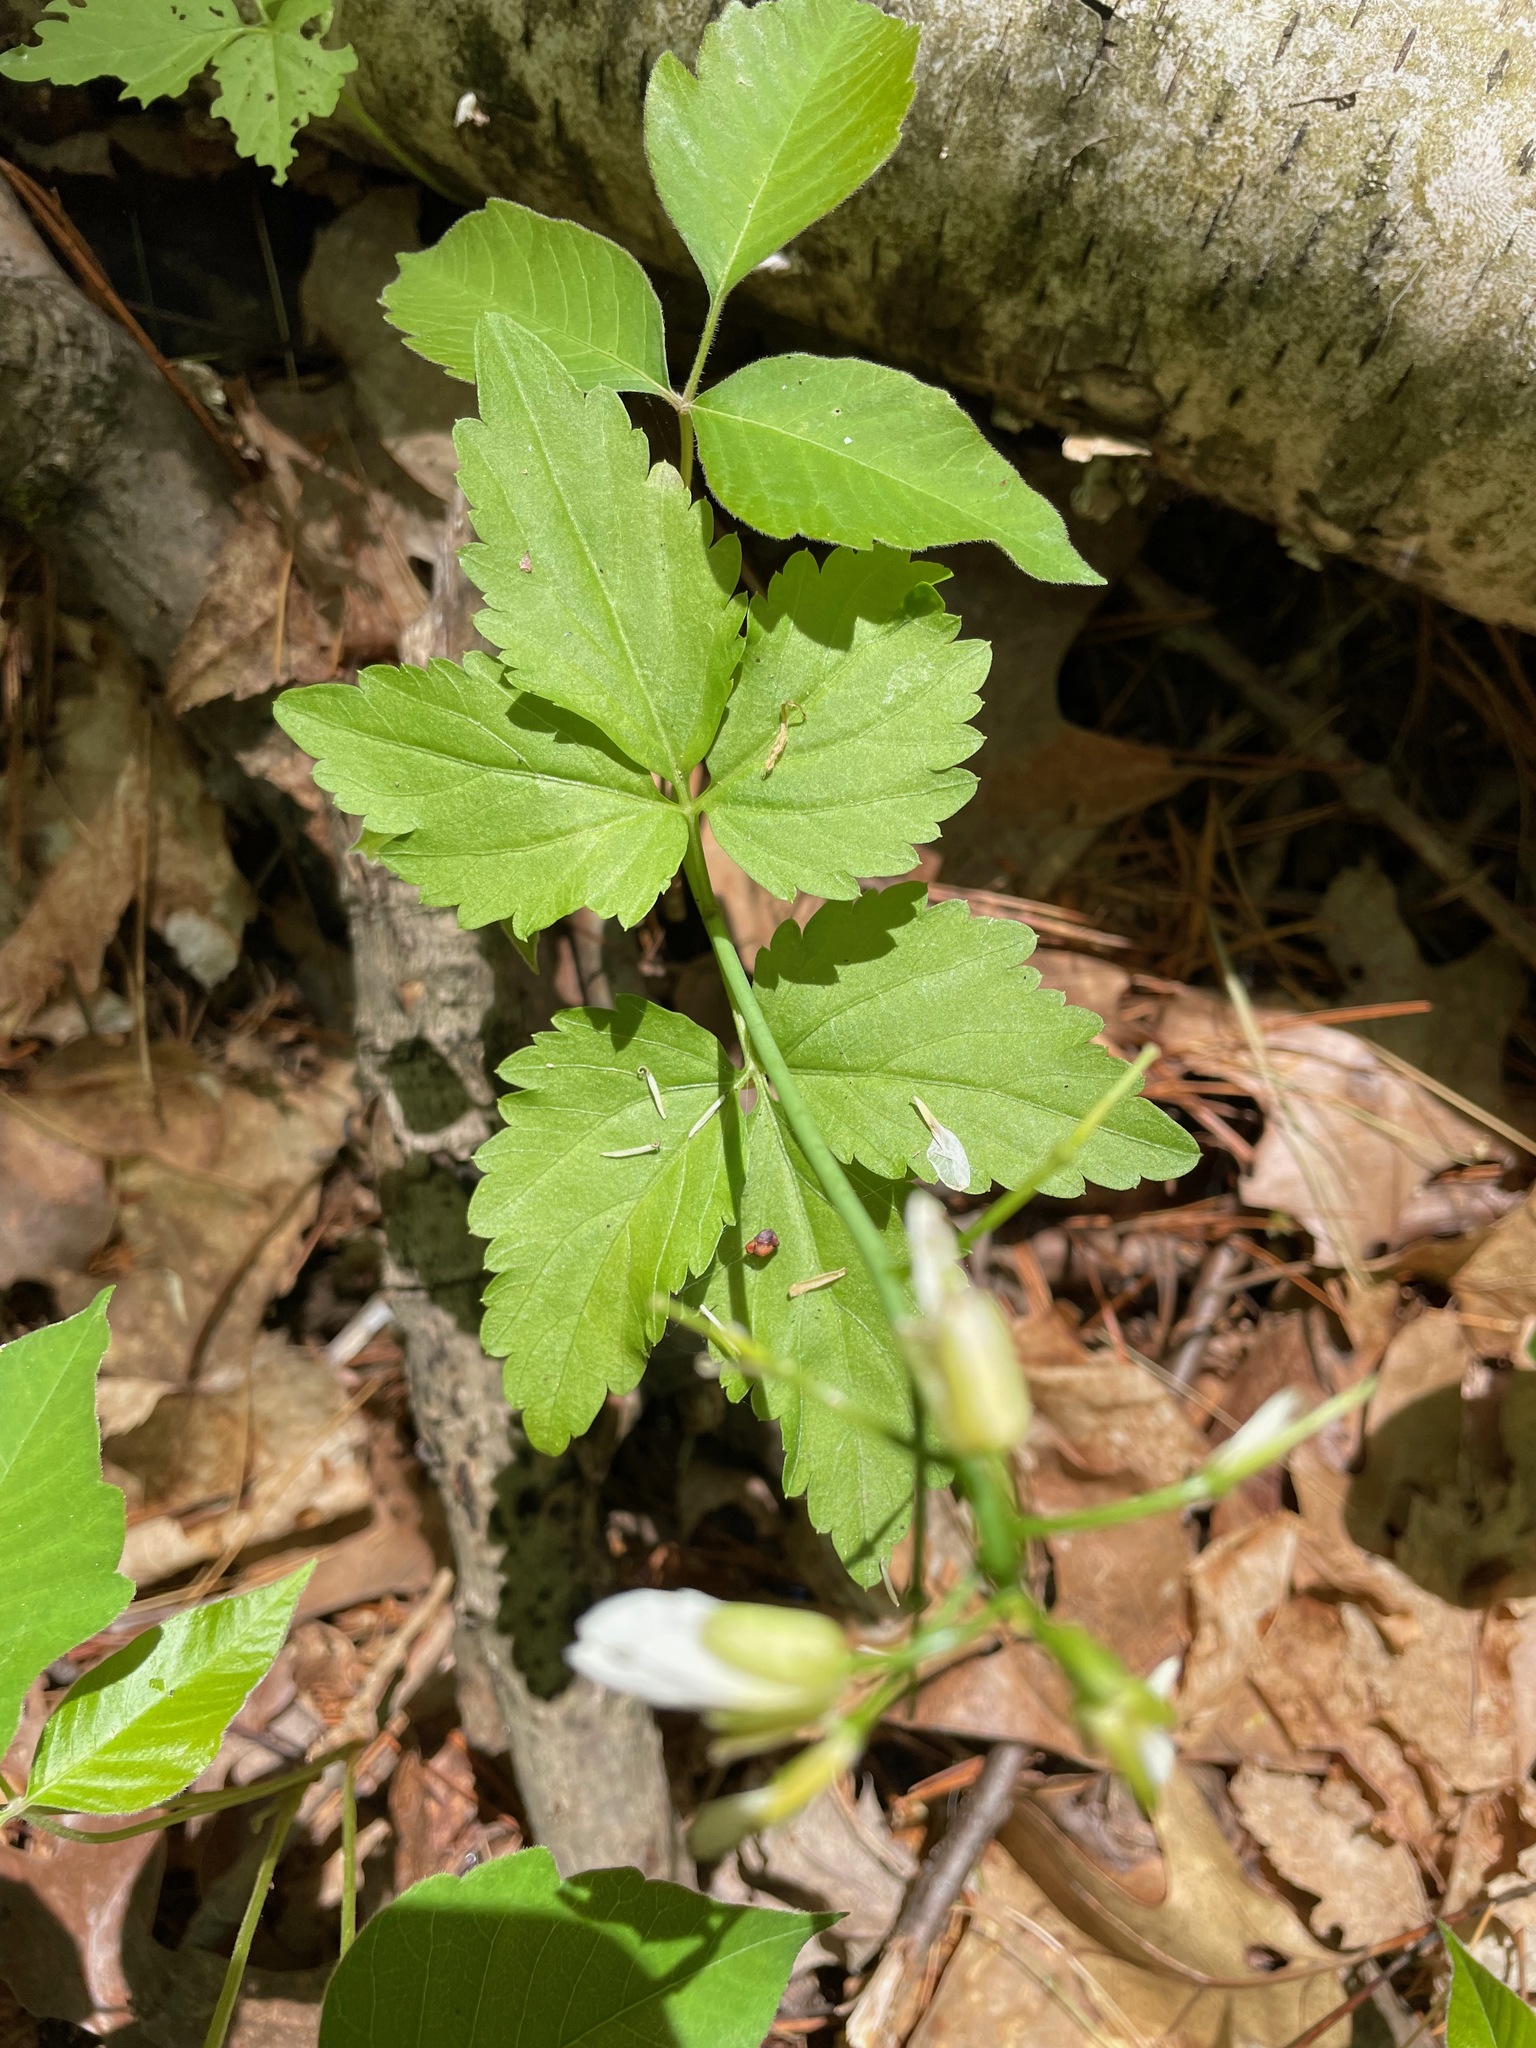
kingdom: Plantae
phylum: Tracheophyta
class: Magnoliopsida
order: Brassicales
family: Brassicaceae
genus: Cardamine
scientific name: Cardamine diphylla
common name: Broad-leaved toothwort
